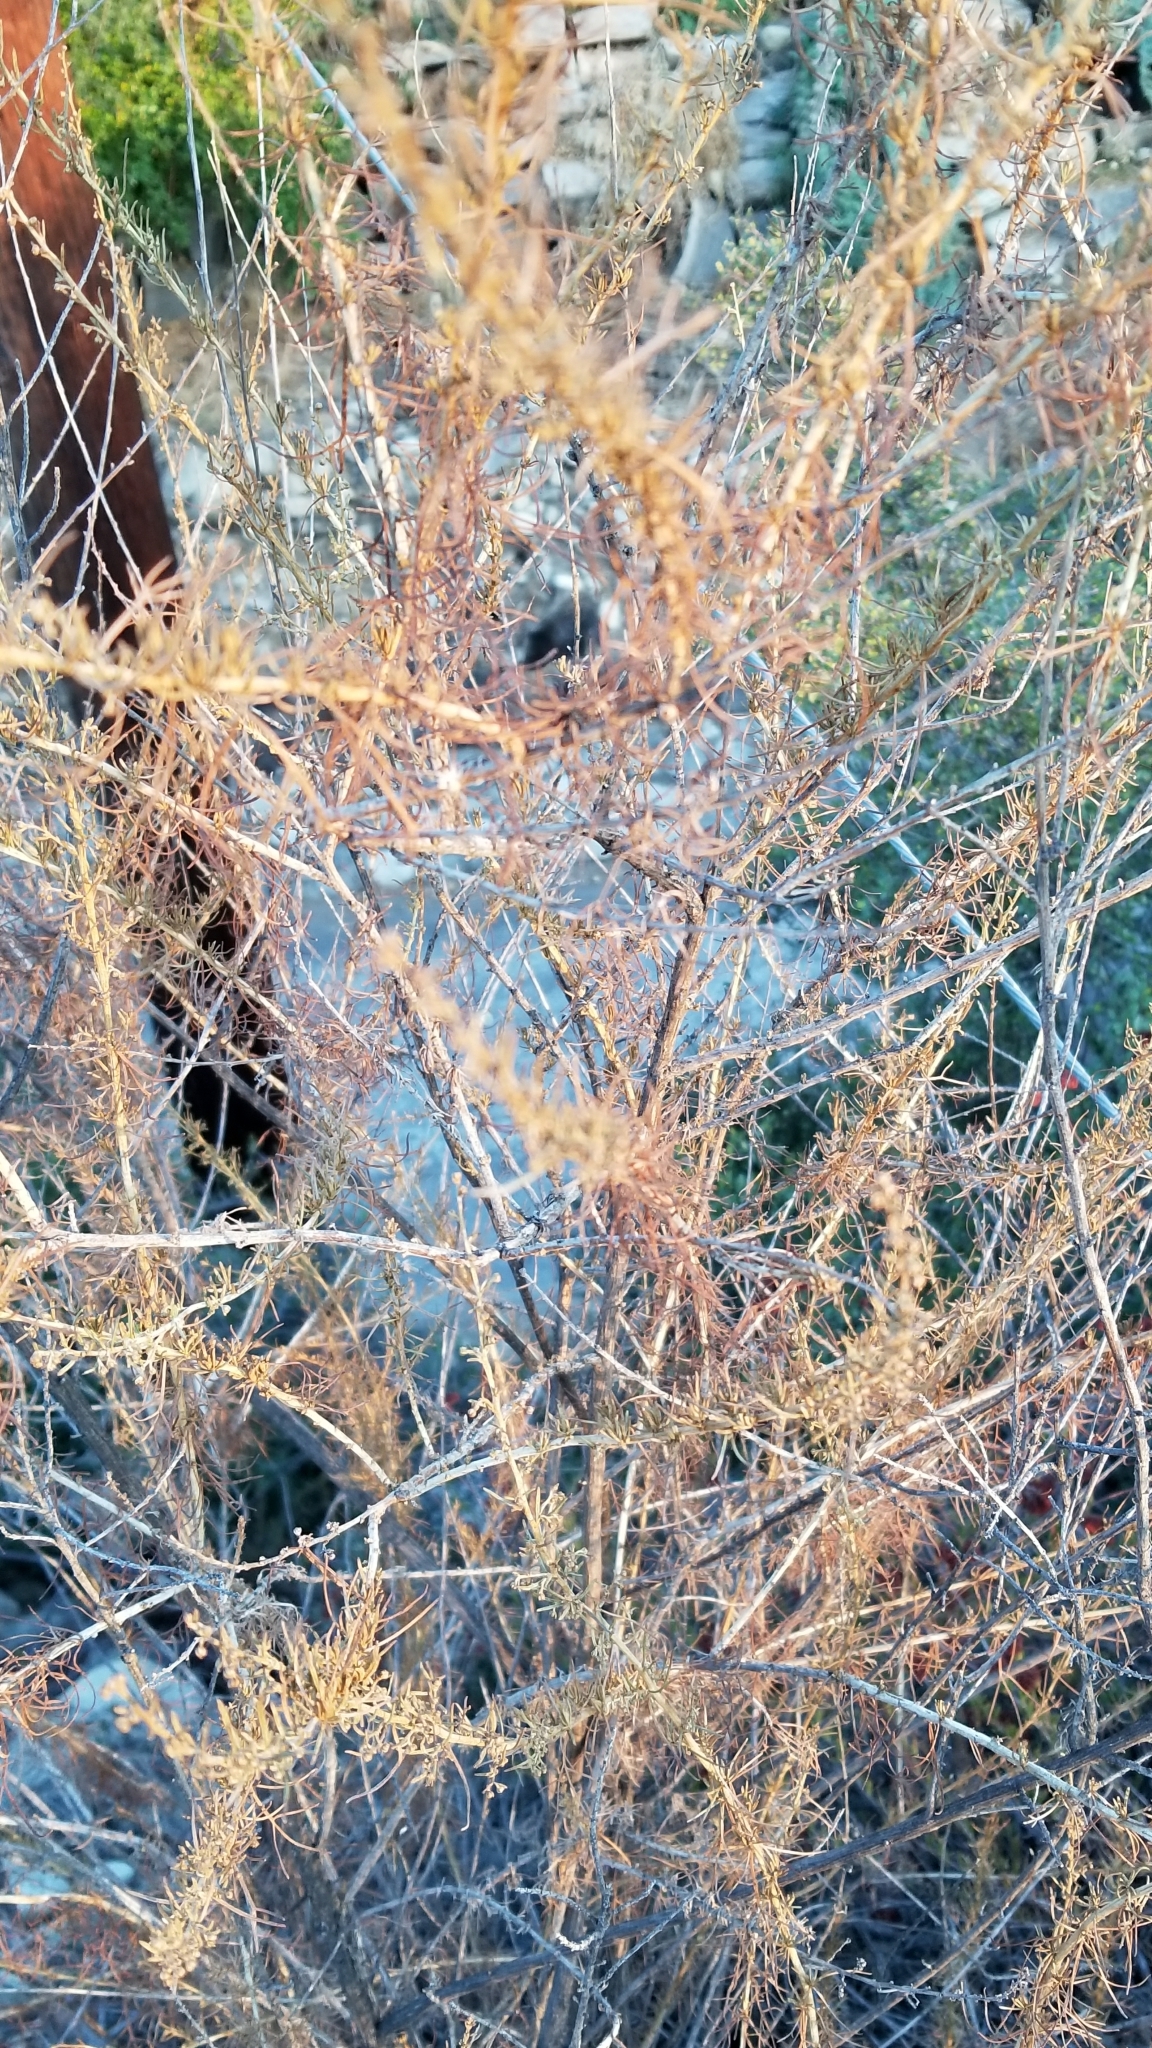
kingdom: Plantae
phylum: Tracheophyta
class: Magnoliopsida
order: Asterales
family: Asteraceae
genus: Artemisia
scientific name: Artemisia californica
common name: California sagebrush
